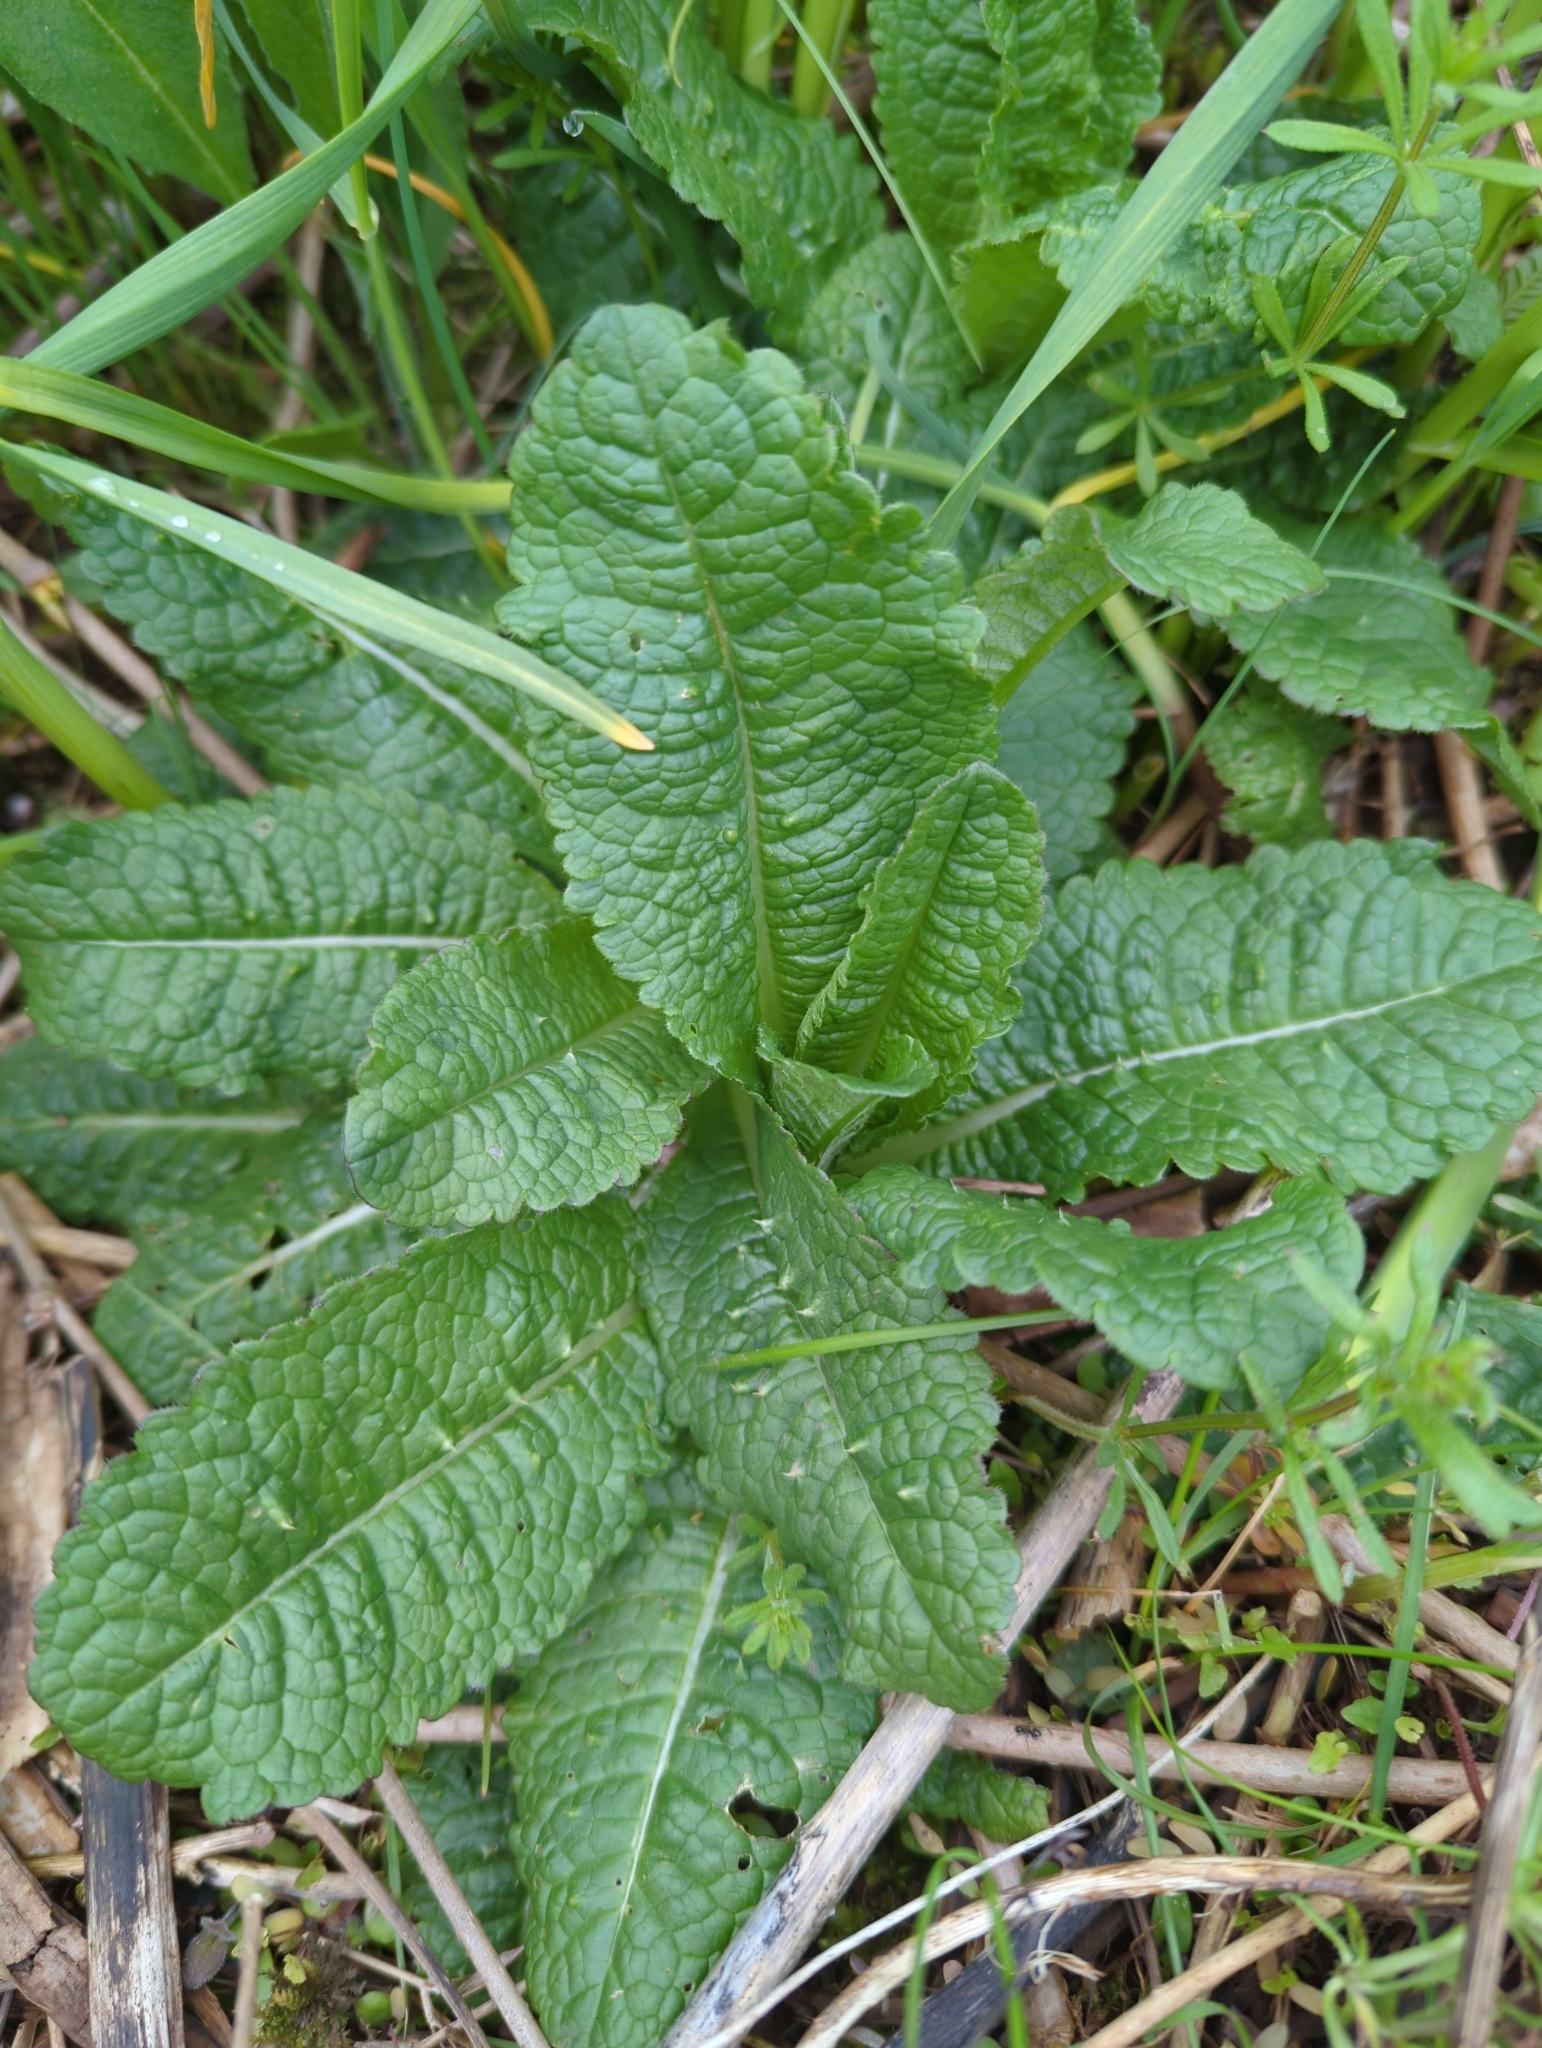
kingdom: Plantae
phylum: Tracheophyta
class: Magnoliopsida
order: Dipsacales
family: Caprifoliaceae
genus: Dipsacus
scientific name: Dipsacus fullonum
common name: Teasel
